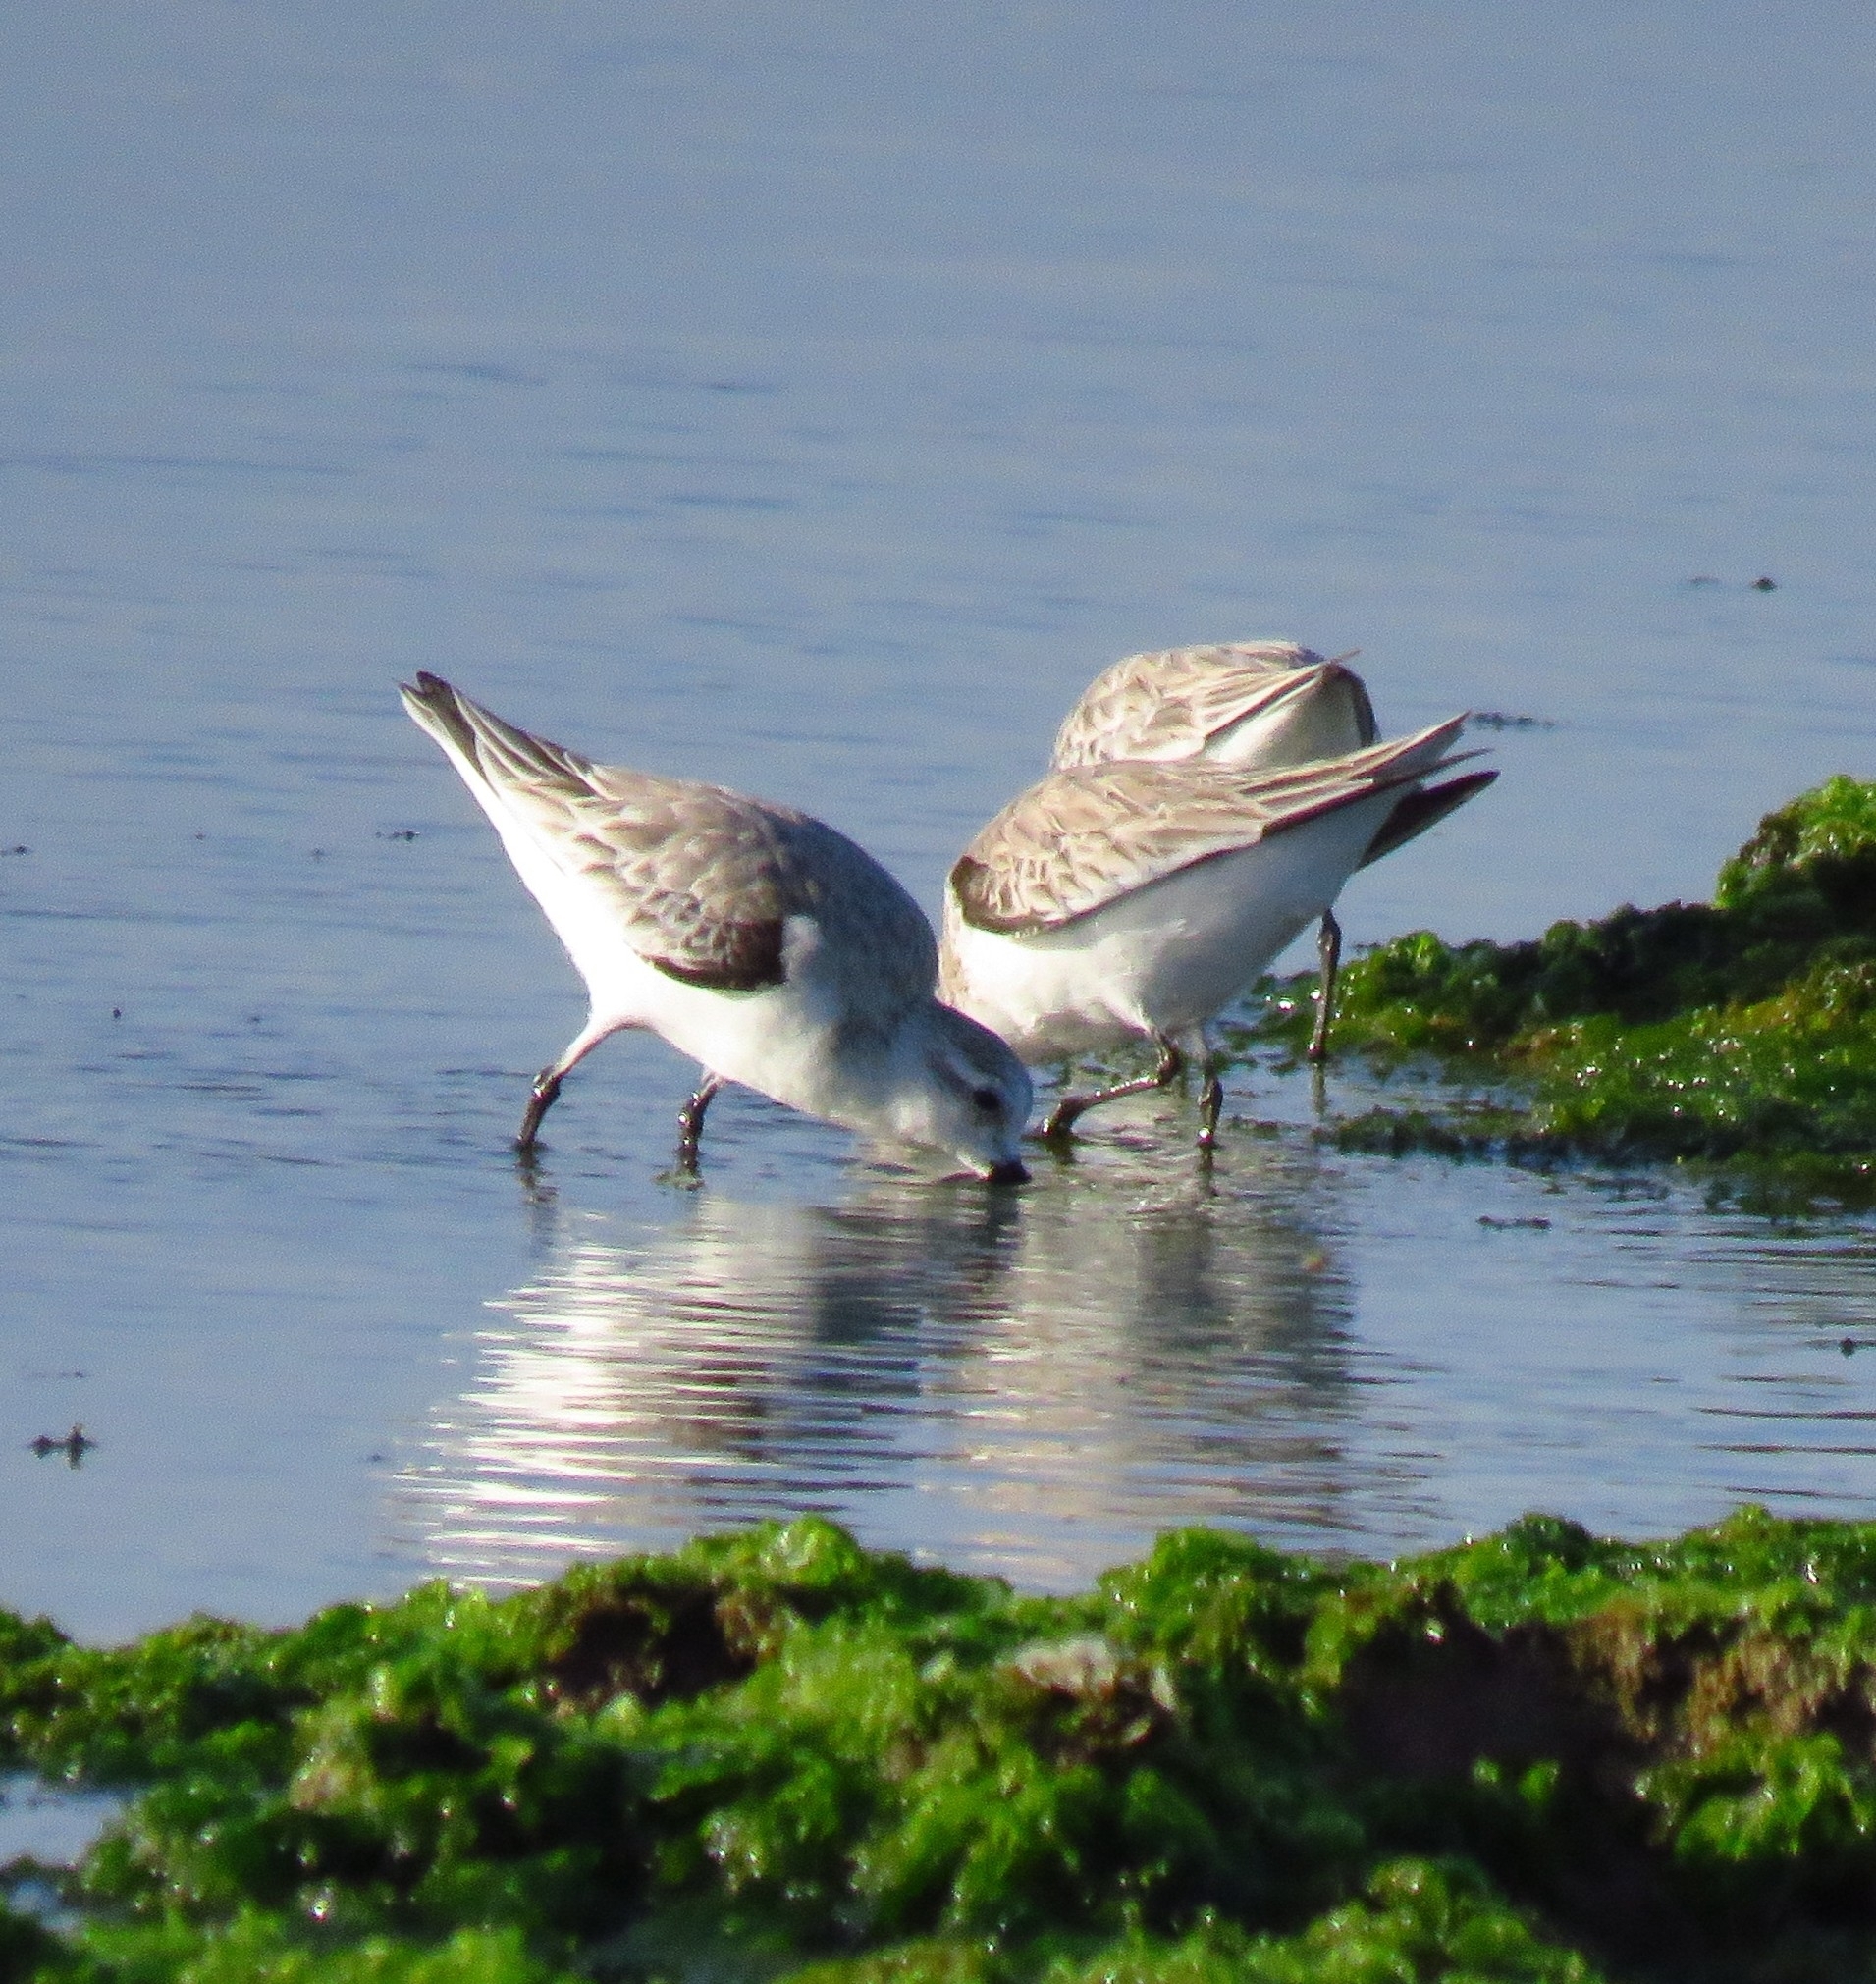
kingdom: Animalia
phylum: Chordata
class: Aves
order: Charadriiformes
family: Scolopacidae
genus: Calidris
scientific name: Calidris alba
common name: Sanderling
